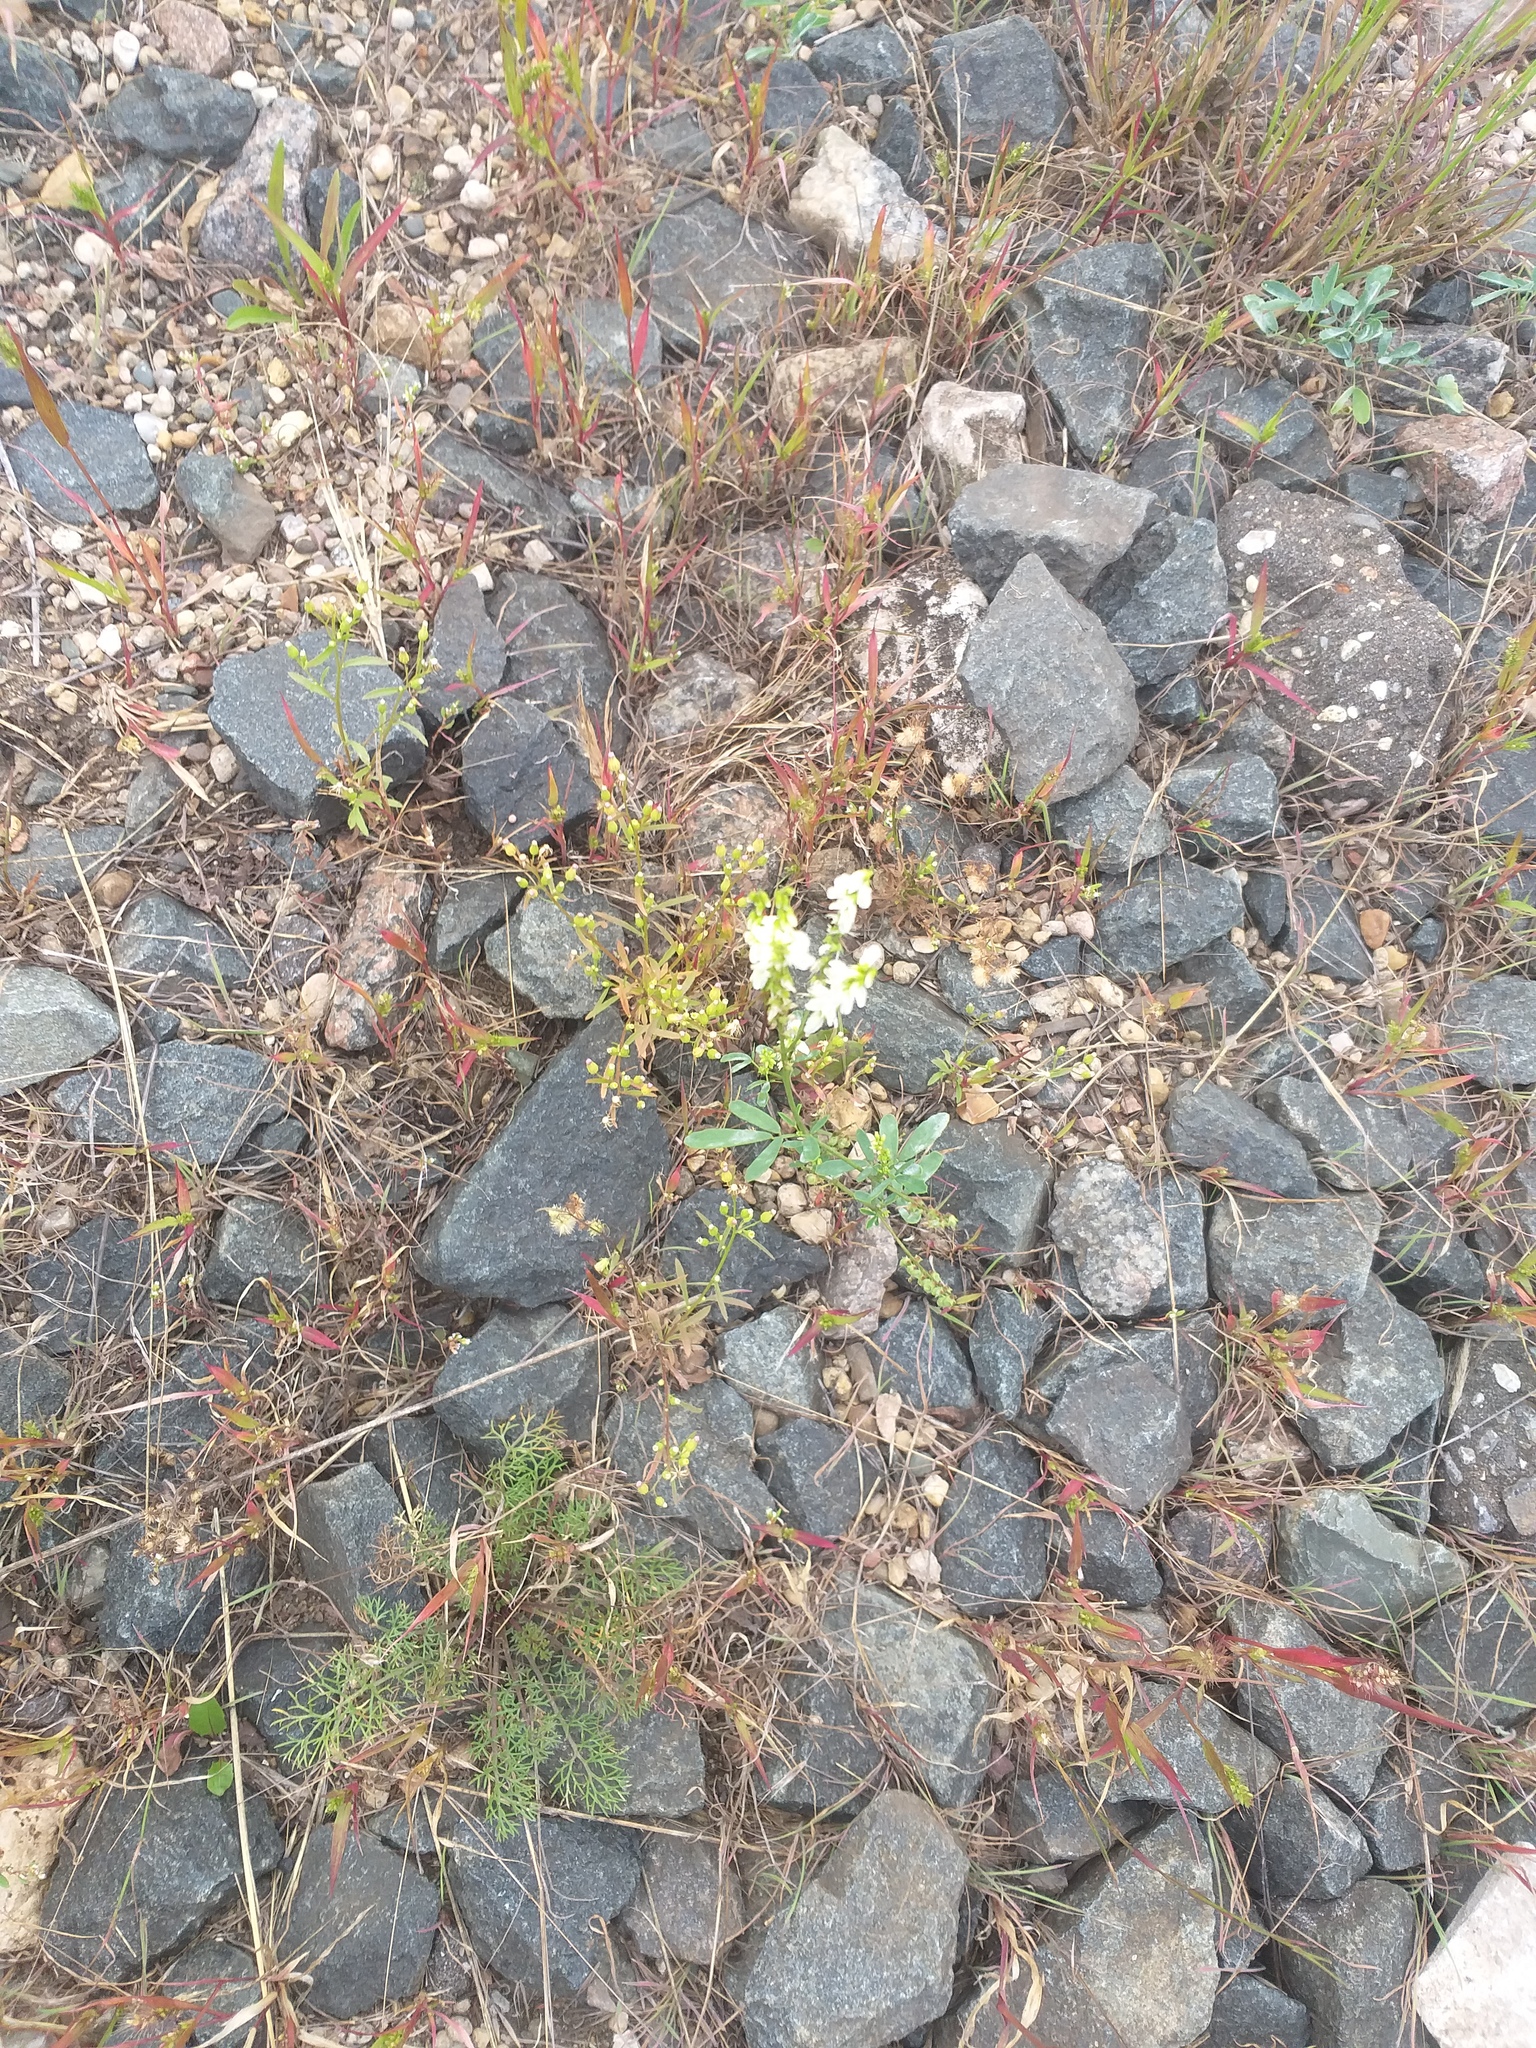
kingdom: Plantae
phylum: Tracheophyta
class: Magnoliopsida
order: Fabales
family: Fabaceae
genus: Melilotus
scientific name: Melilotus albus
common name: White melilot
